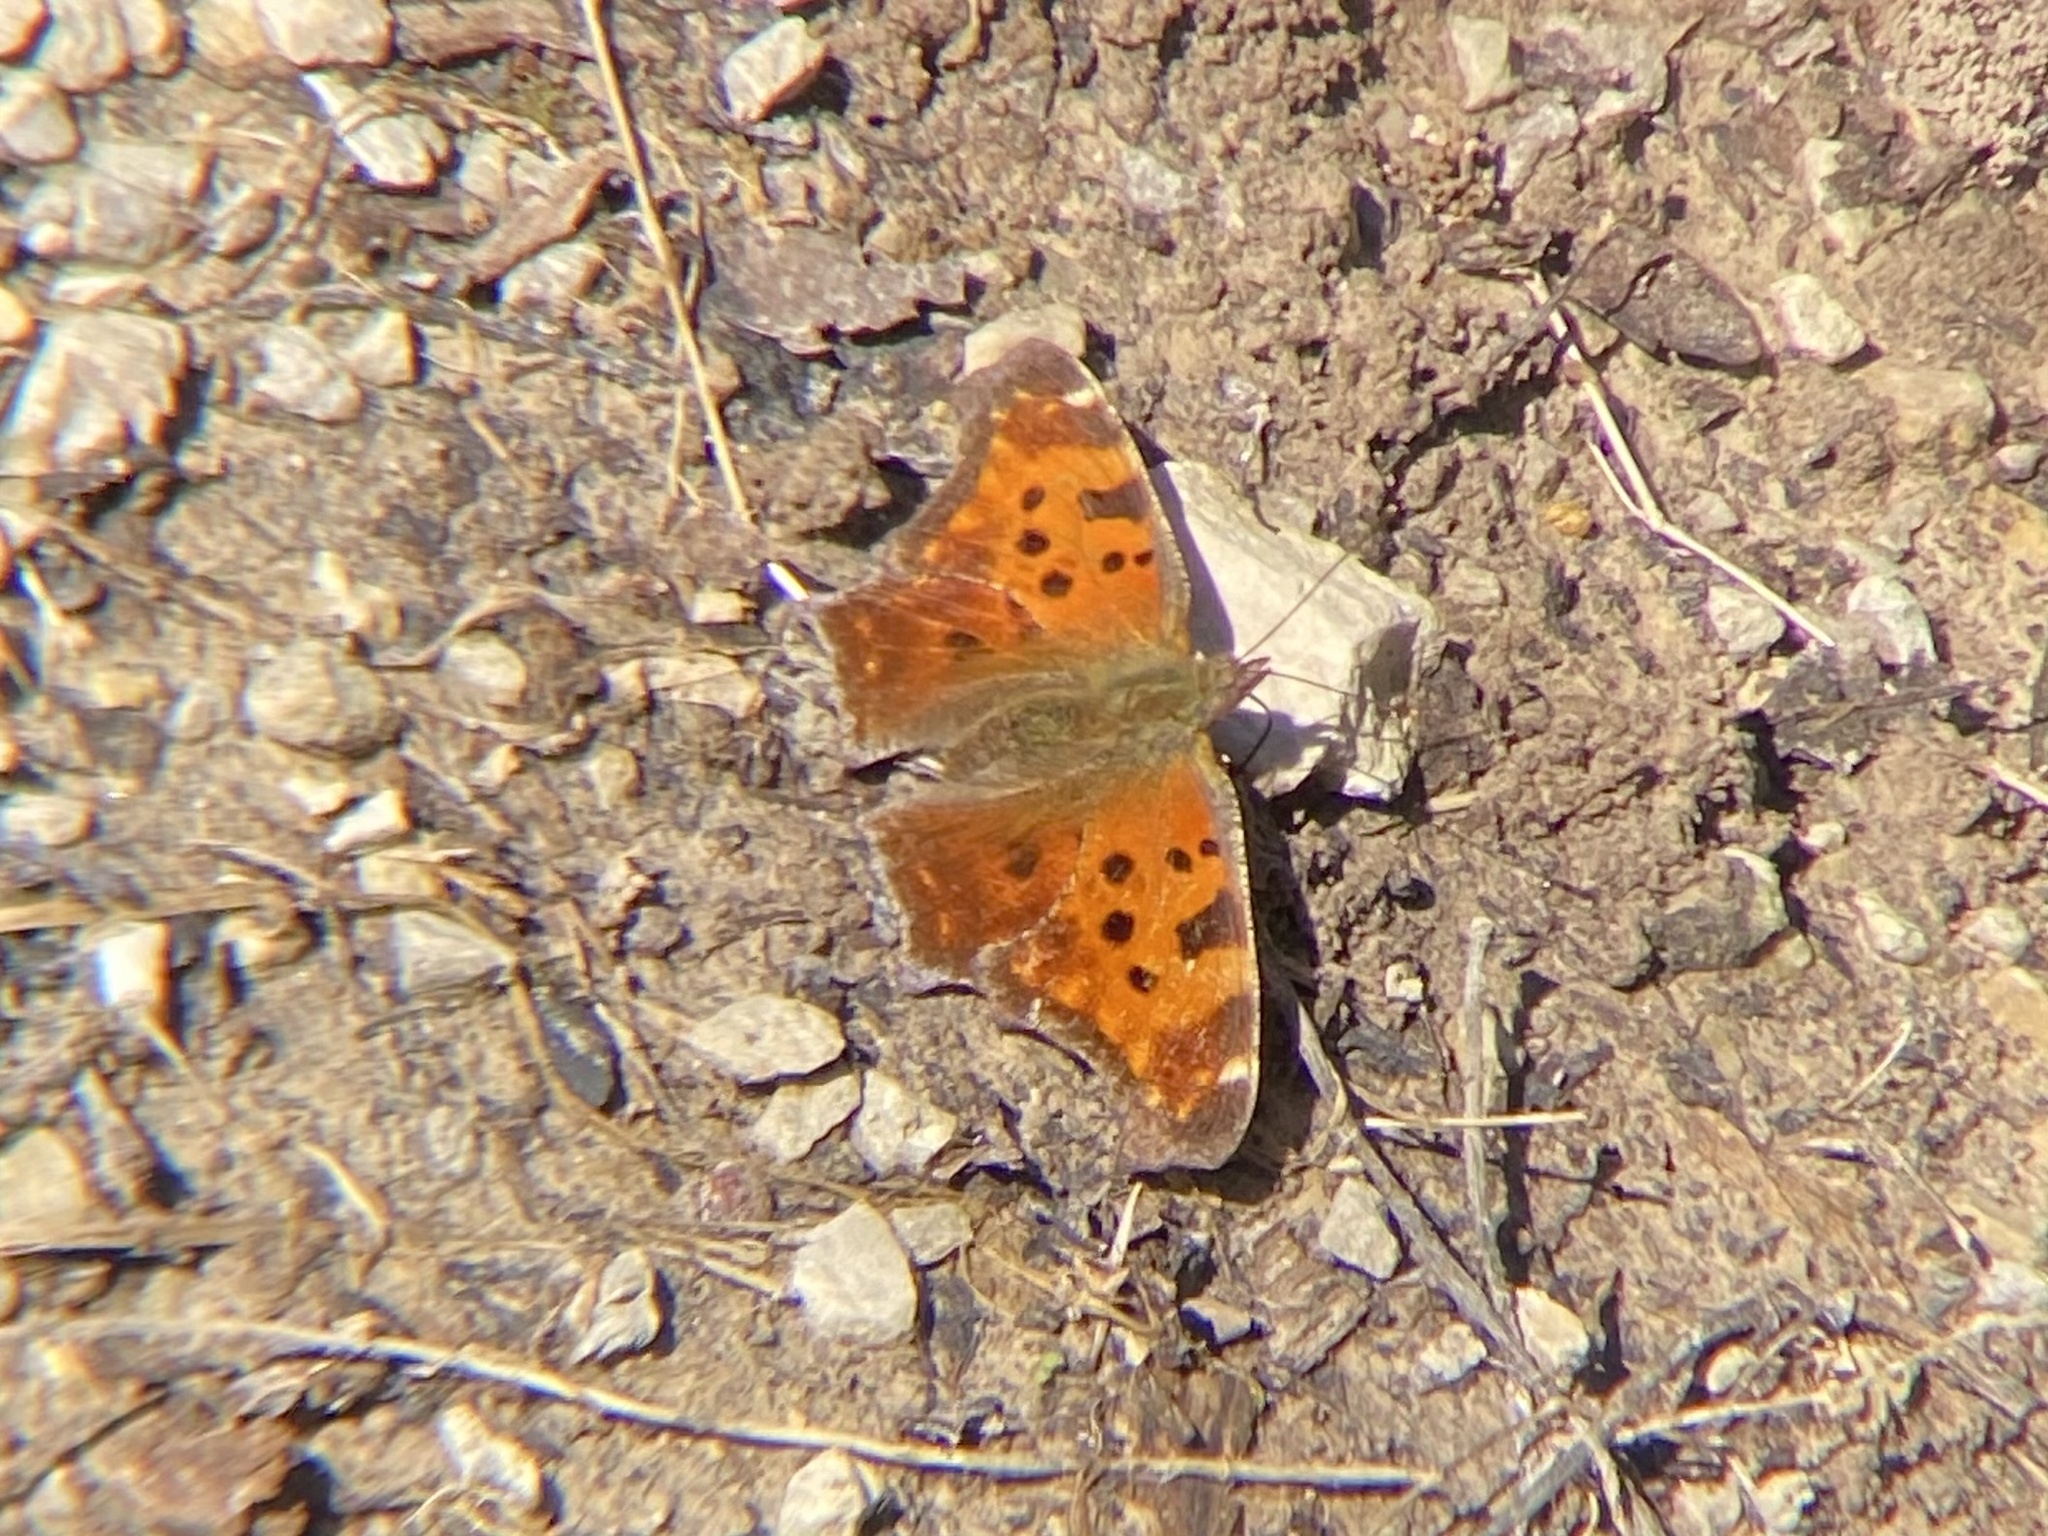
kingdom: Animalia
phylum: Arthropoda
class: Insecta
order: Lepidoptera
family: Nymphalidae
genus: Polygonia
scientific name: Polygonia comma
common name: Eastern comma
